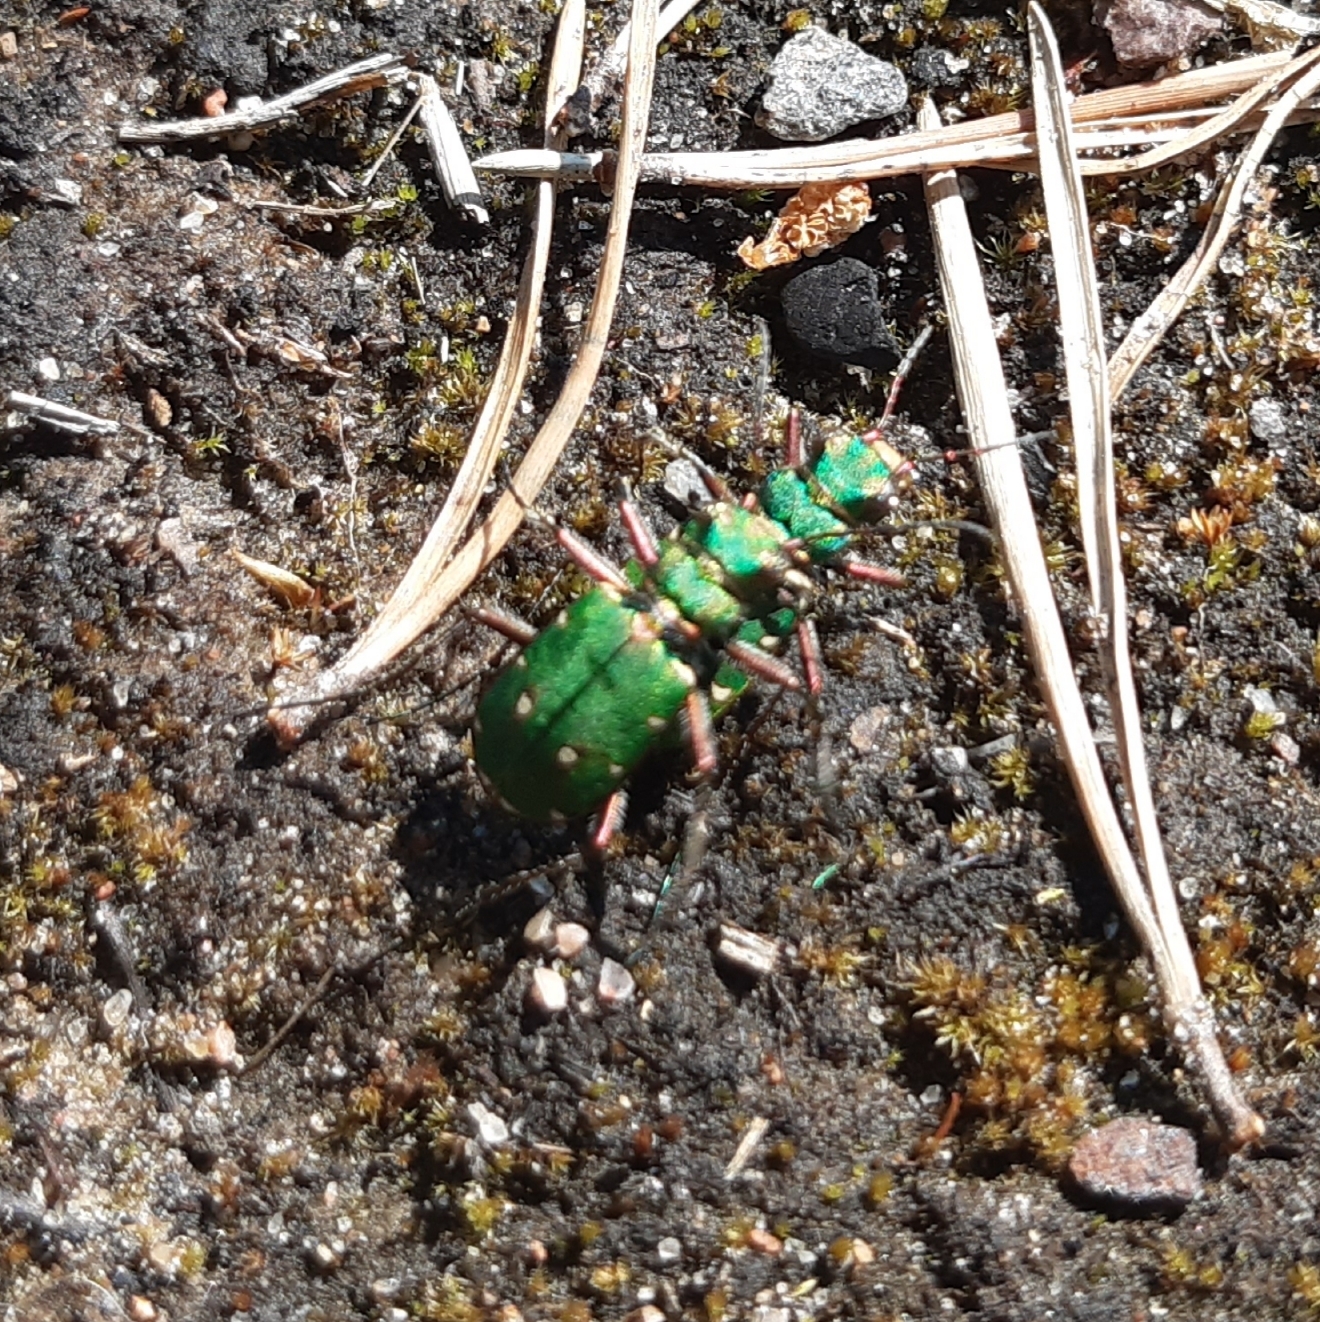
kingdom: Animalia
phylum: Arthropoda
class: Insecta
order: Coleoptera
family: Carabidae
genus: Cicindela
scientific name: Cicindela campestris
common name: Common tiger beetle
